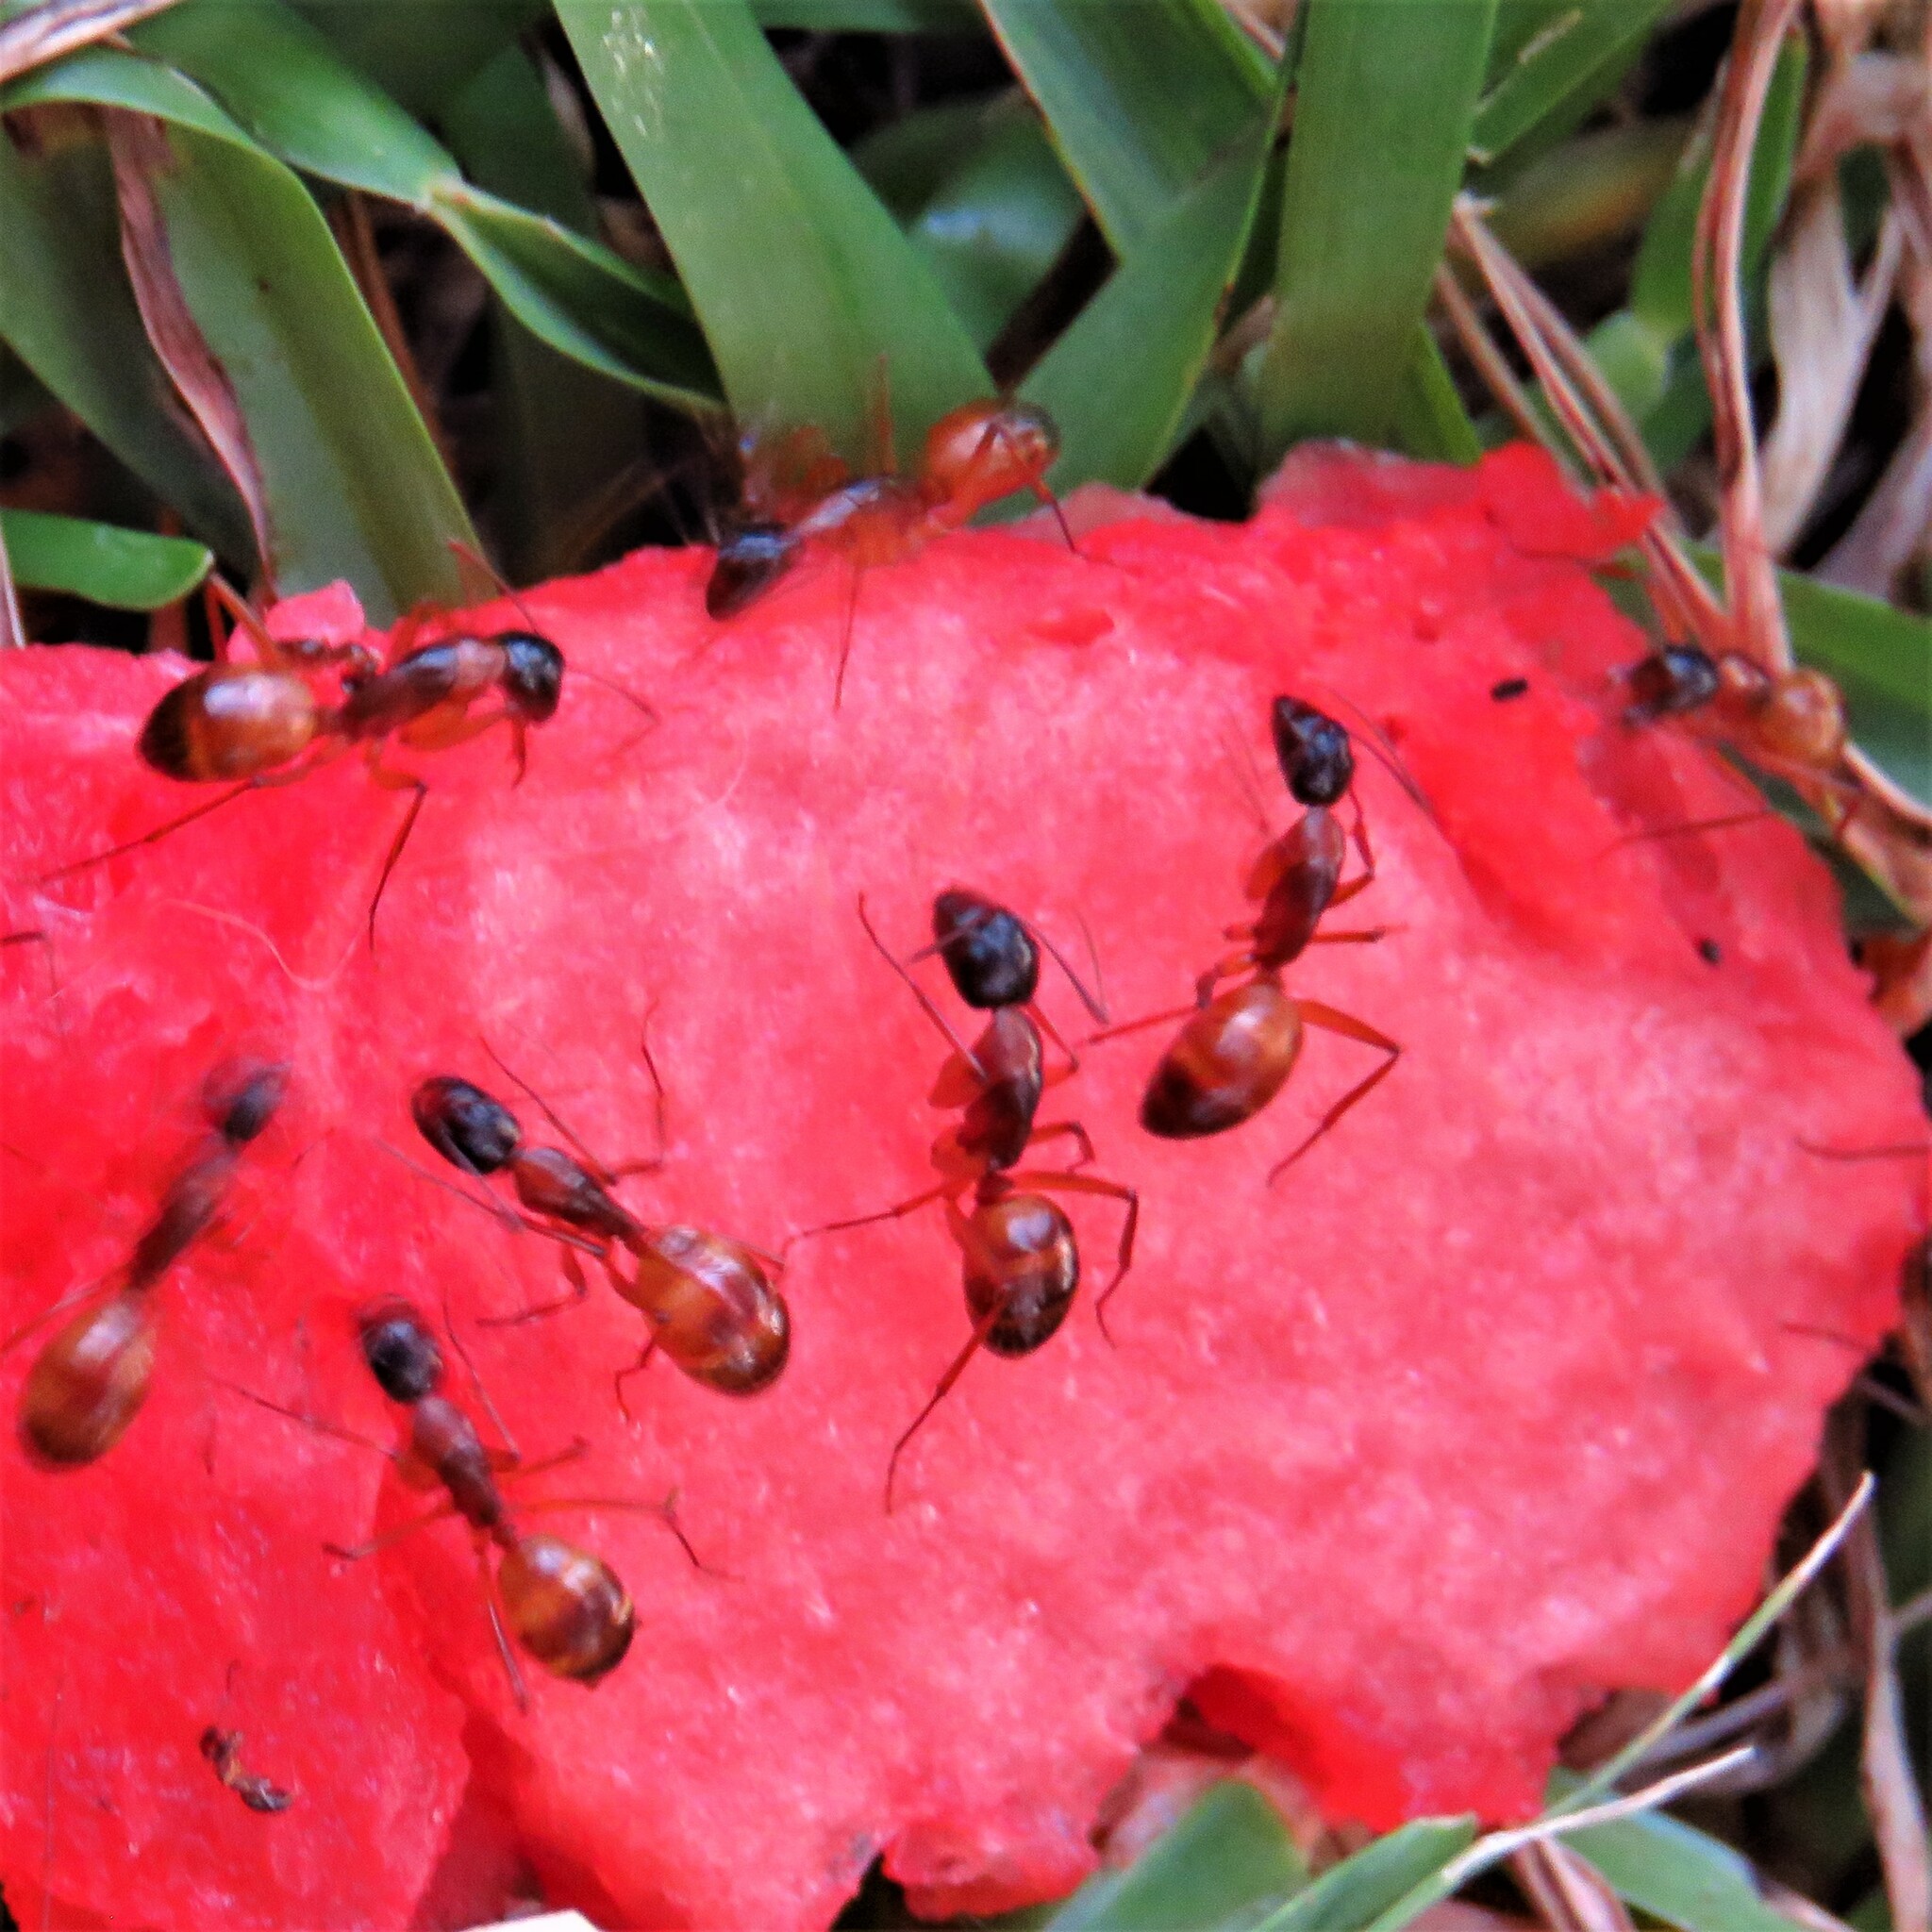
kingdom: Animalia
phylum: Arthropoda
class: Insecta
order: Hymenoptera
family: Formicidae
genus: Camponotus
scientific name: Camponotus americanus
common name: American carpenter ant
